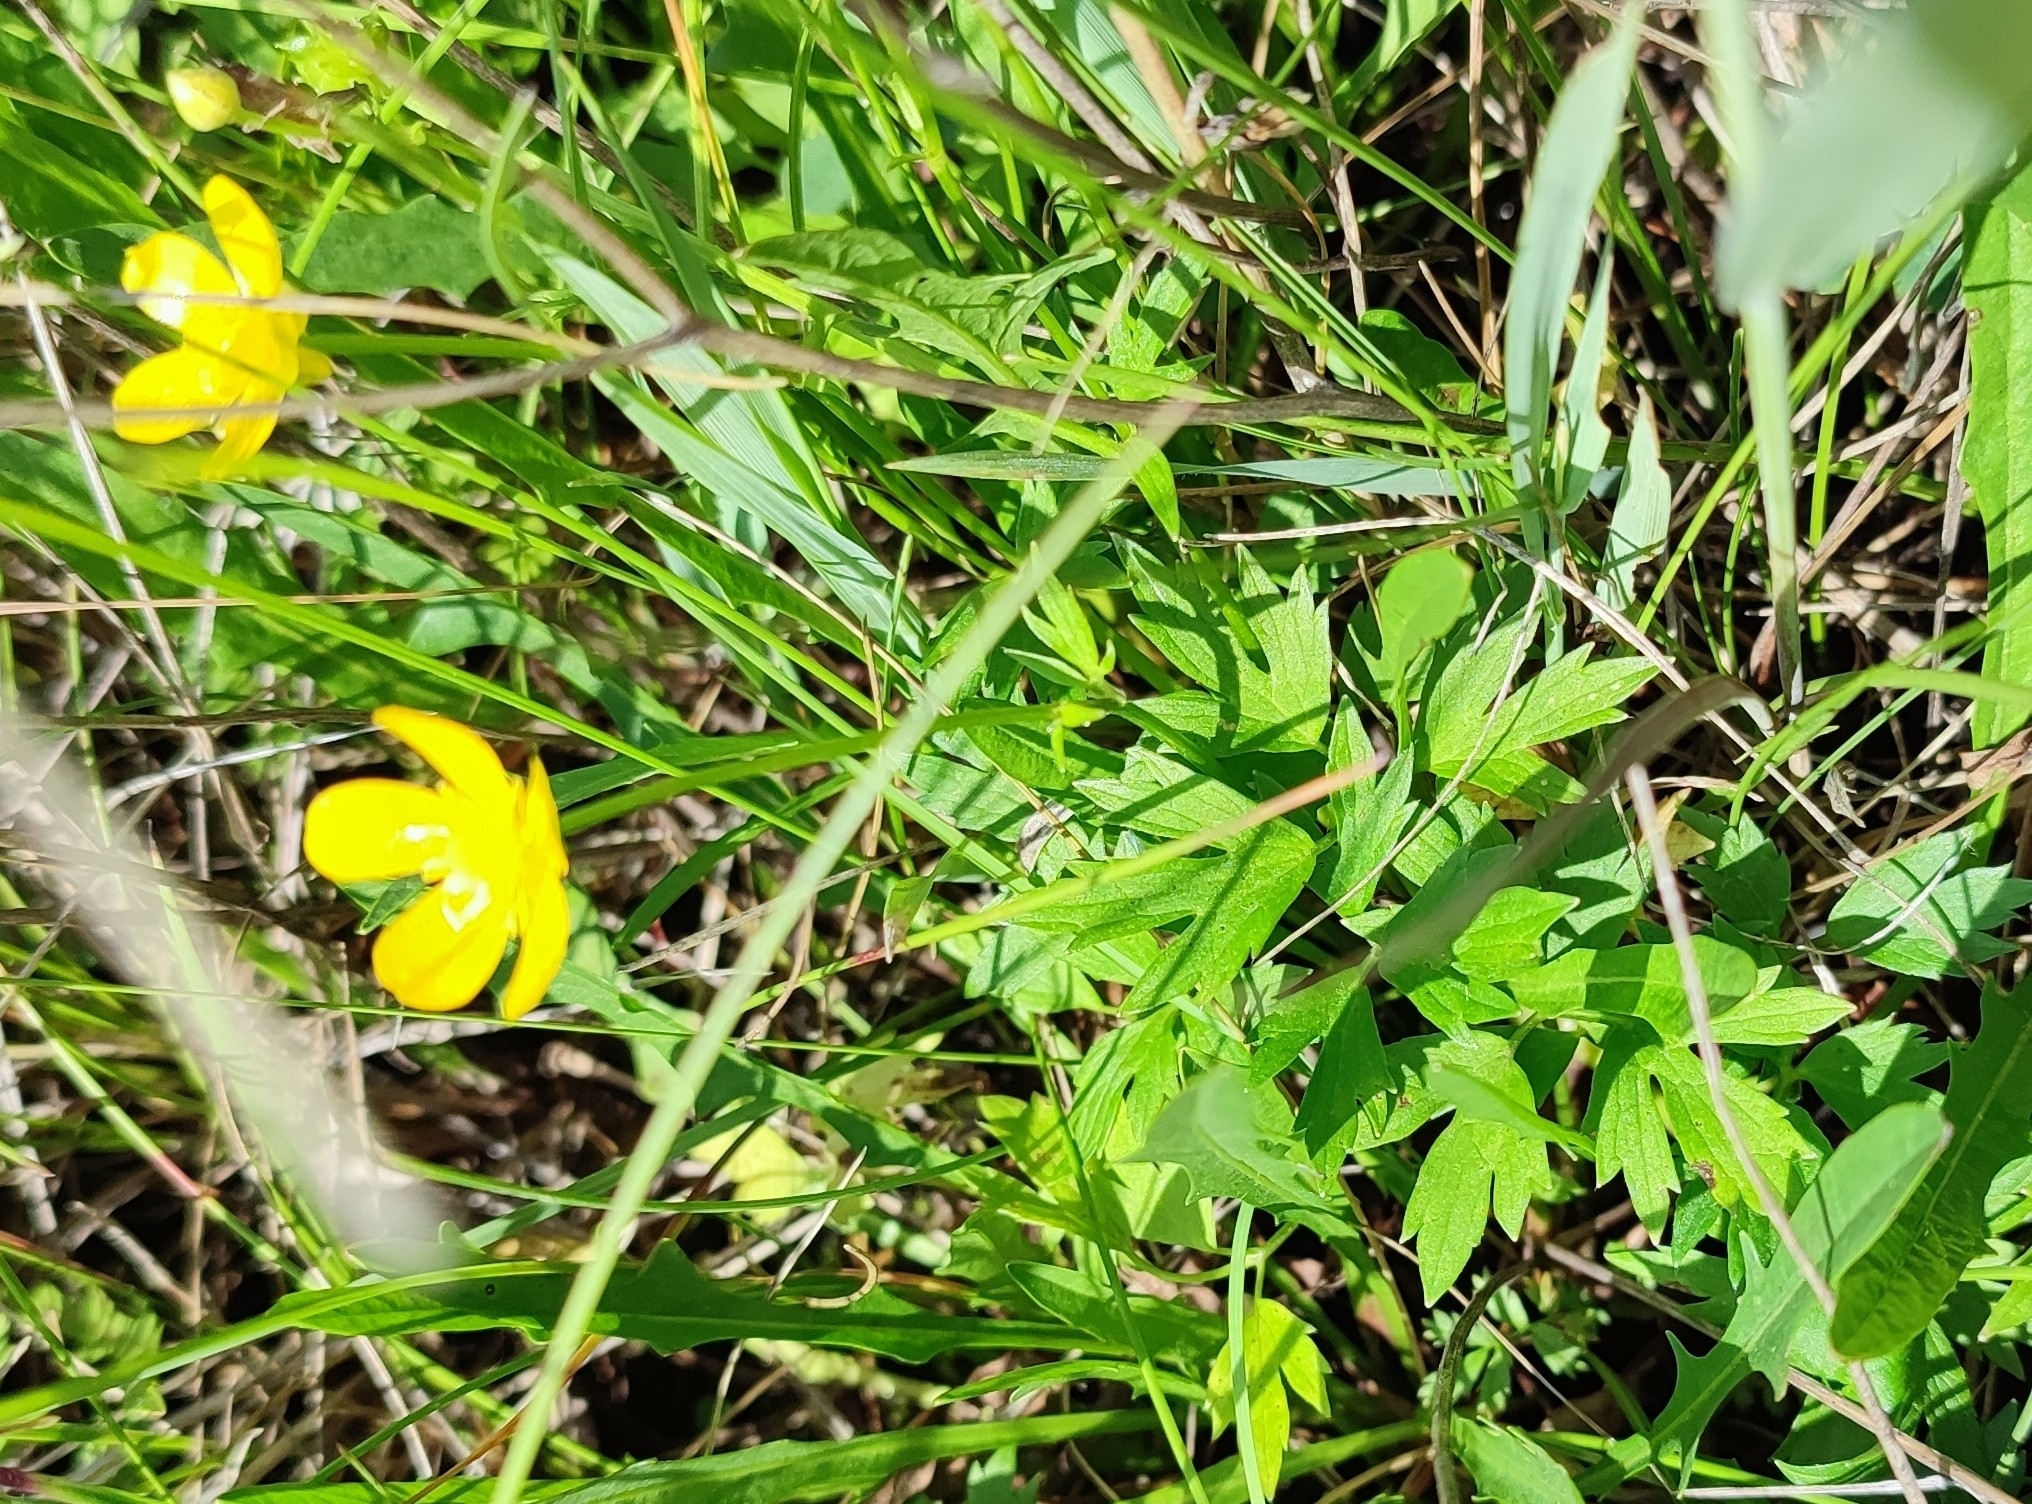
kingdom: Plantae
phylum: Tracheophyta
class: Magnoliopsida
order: Ranunculales
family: Ranunculaceae
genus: Ranunculus
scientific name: Ranunculus repens
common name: Creeping buttercup
